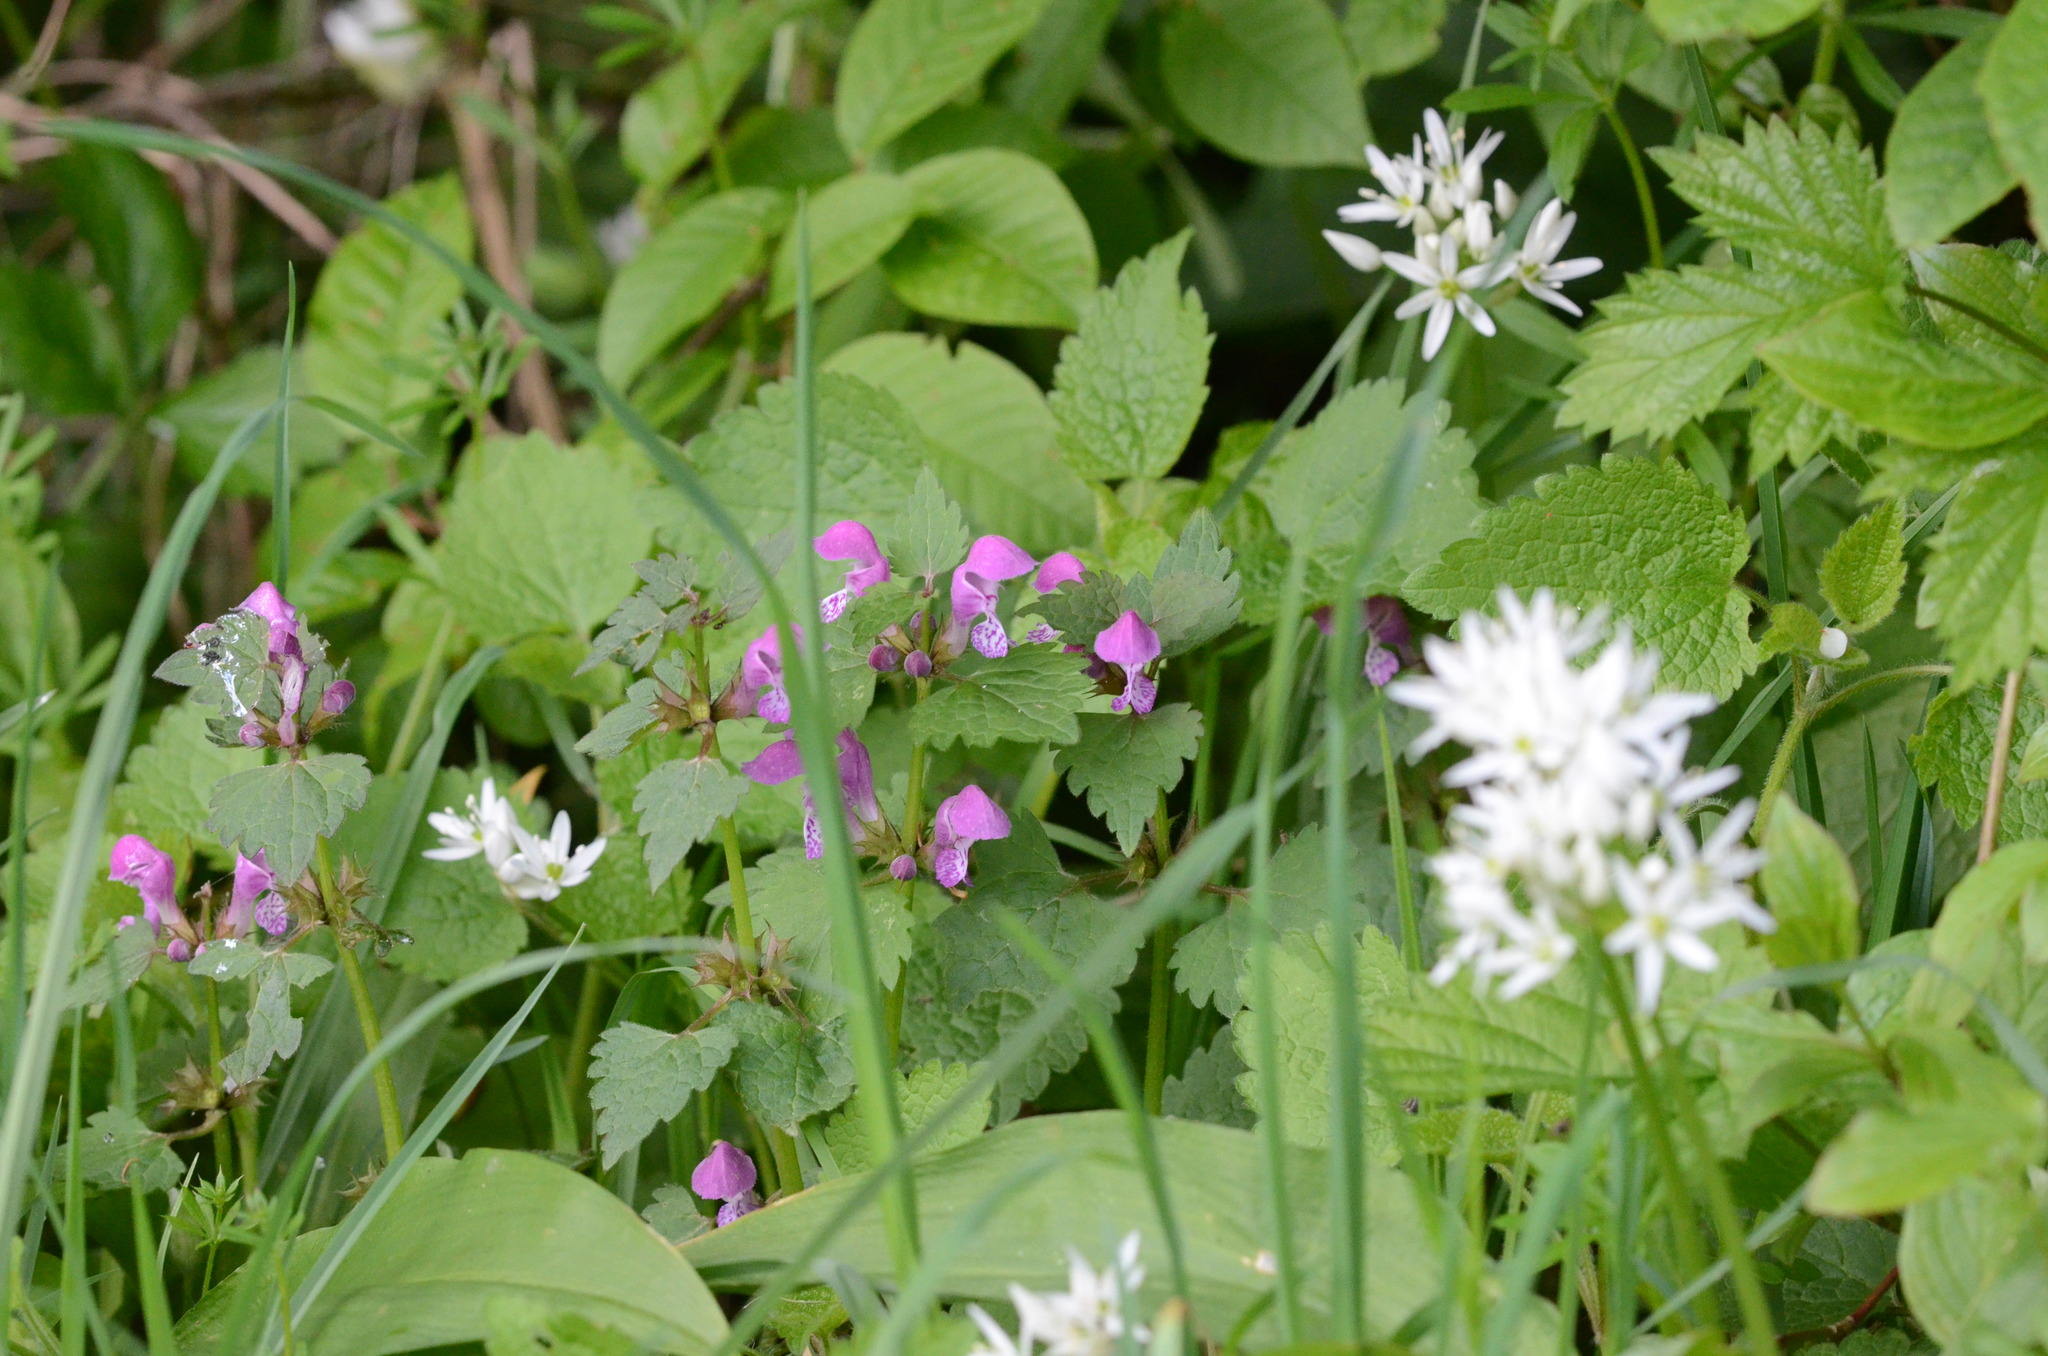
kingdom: Plantae
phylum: Tracheophyta
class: Magnoliopsida
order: Lamiales
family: Lamiaceae
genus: Lamium
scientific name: Lamium maculatum
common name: Spotted dead-nettle
